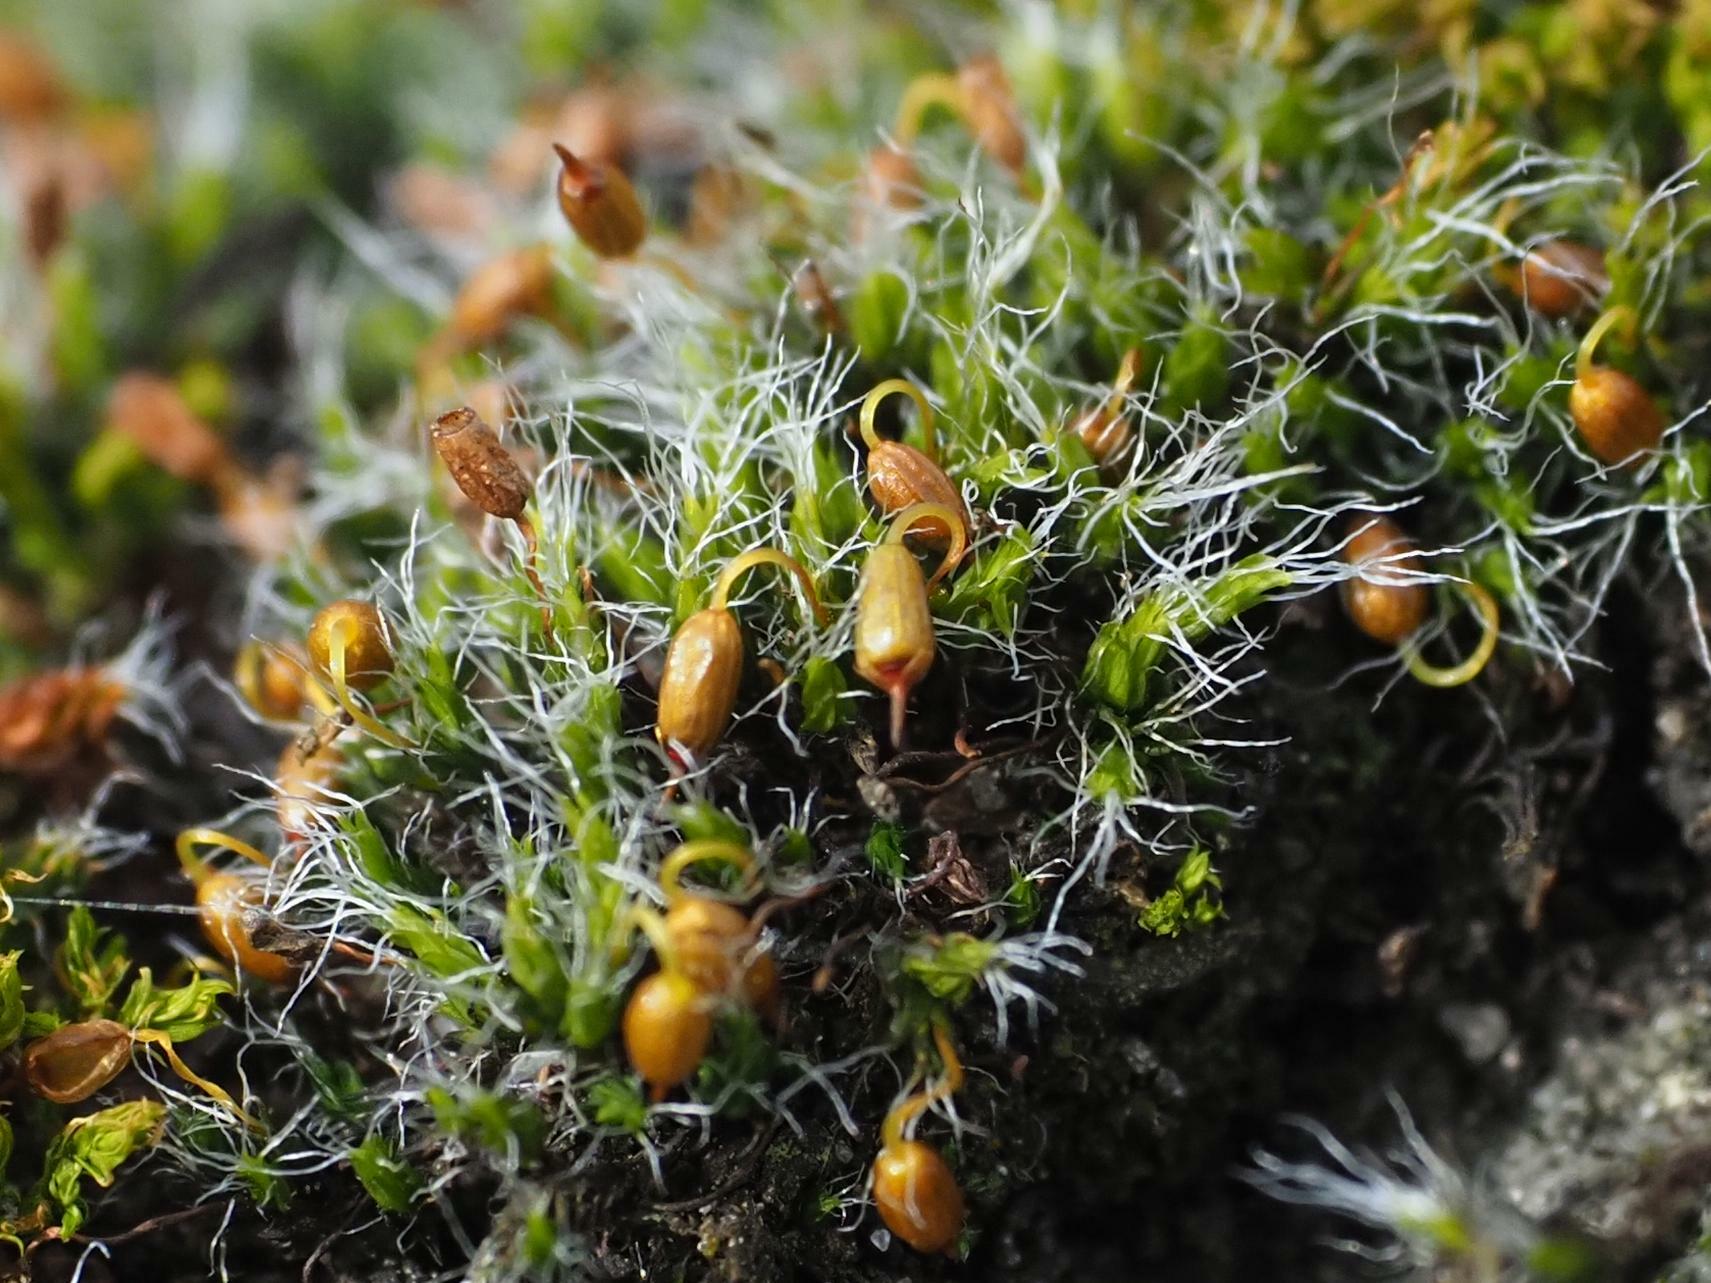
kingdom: Plantae
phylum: Bryophyta
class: Bryopsida
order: Grimmiales
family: Grimmiaceae
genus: Grimmia
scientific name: Grimmia pulvinata
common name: Grey-cushioned grimmia
